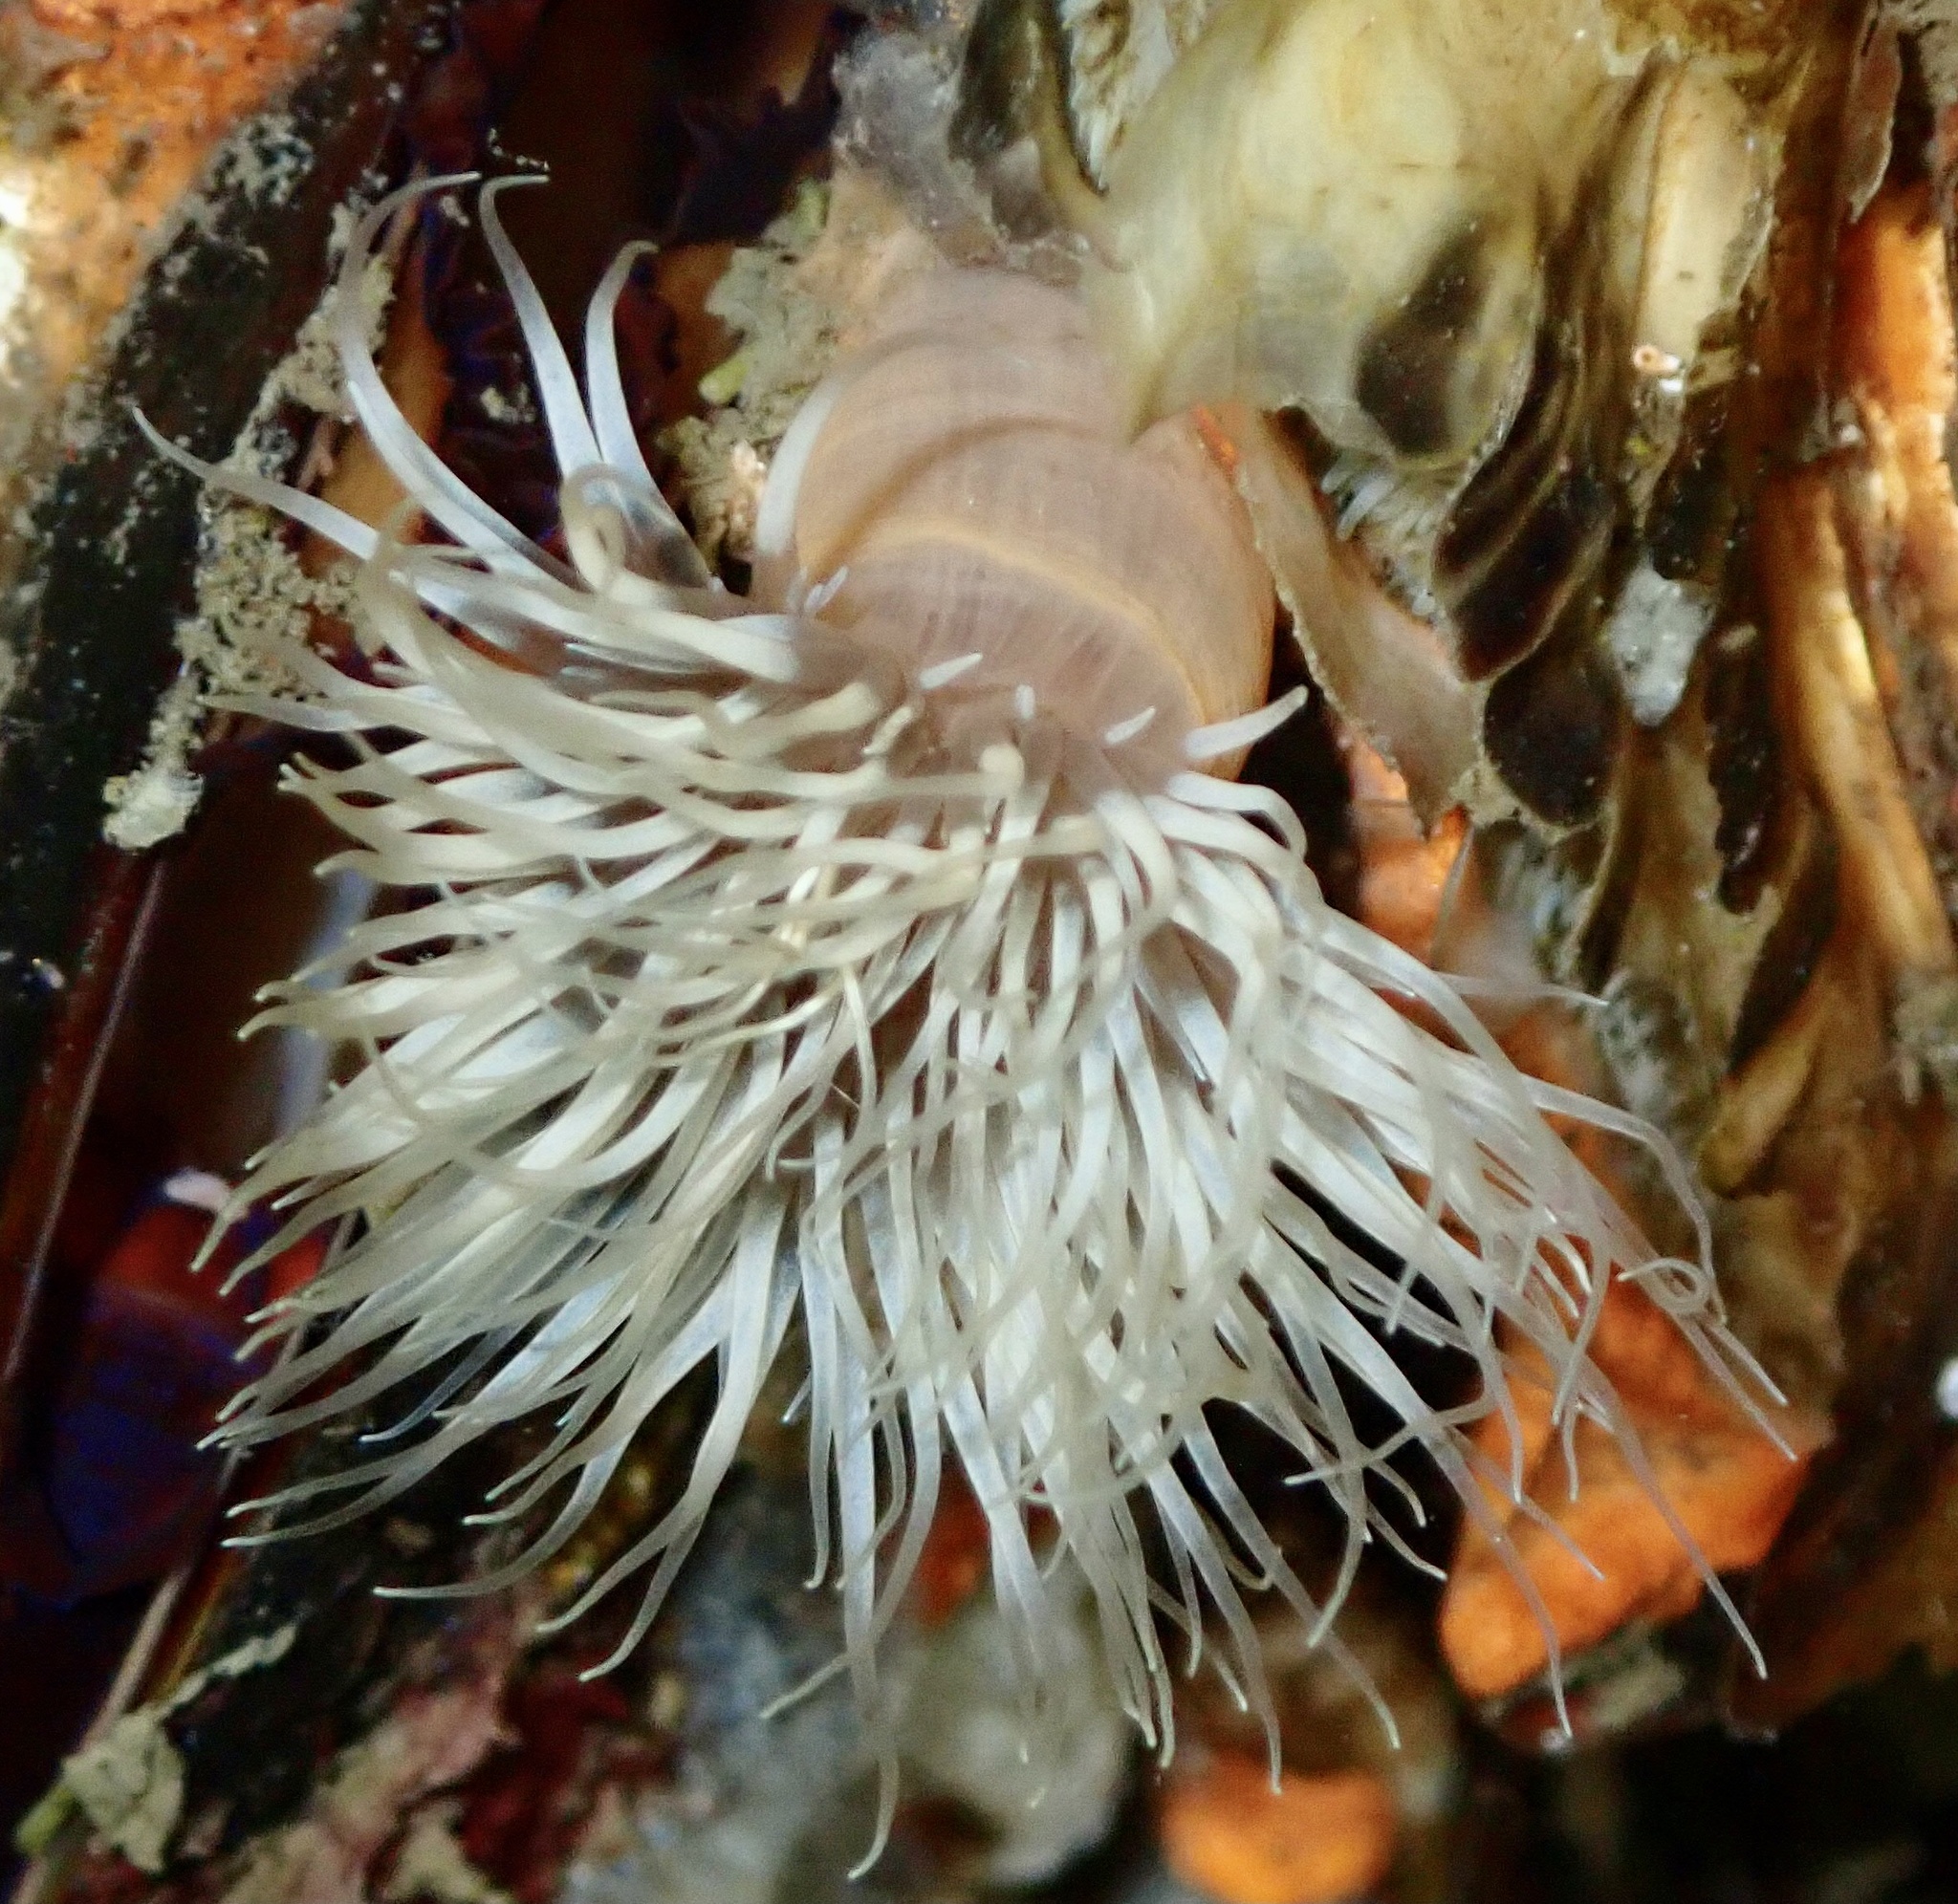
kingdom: Animalia
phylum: Cnidaria
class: Anthozoa
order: Actiniaria
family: Metridiidae
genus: Metridium
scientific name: Metridium senile
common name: Clonal plumose anemone
